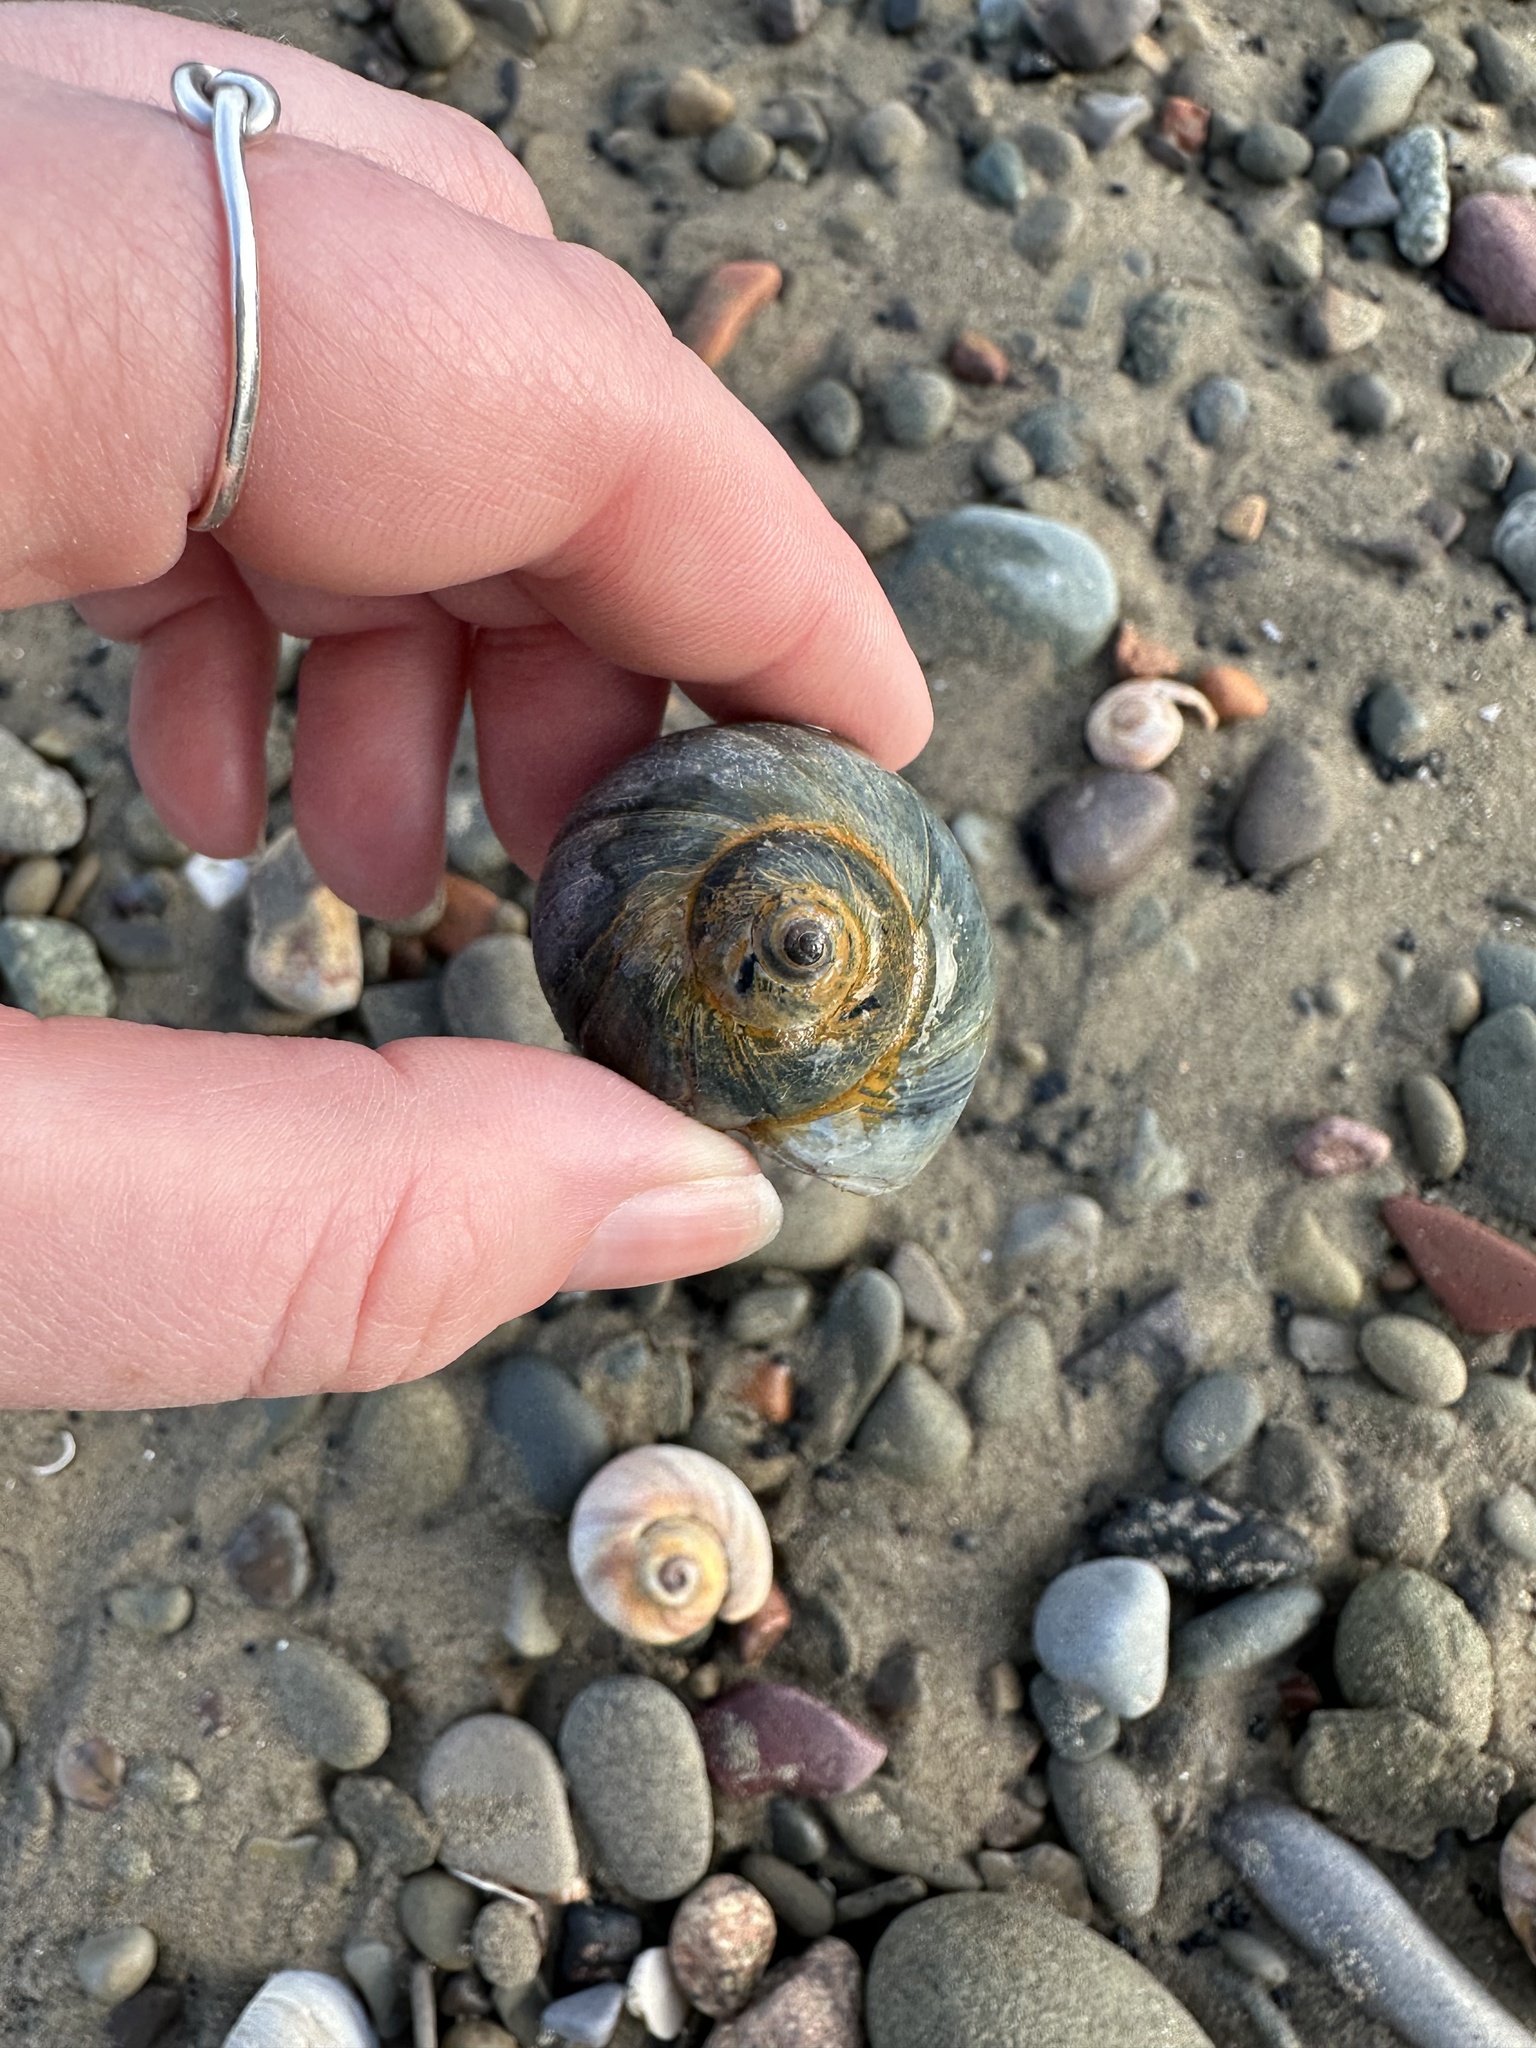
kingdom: Animalia
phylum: Mollusca
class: Gastropoda
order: Littorinimorpha
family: Naticidae
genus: Euspira
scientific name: Euspira heros
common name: Common northern moonsnail
